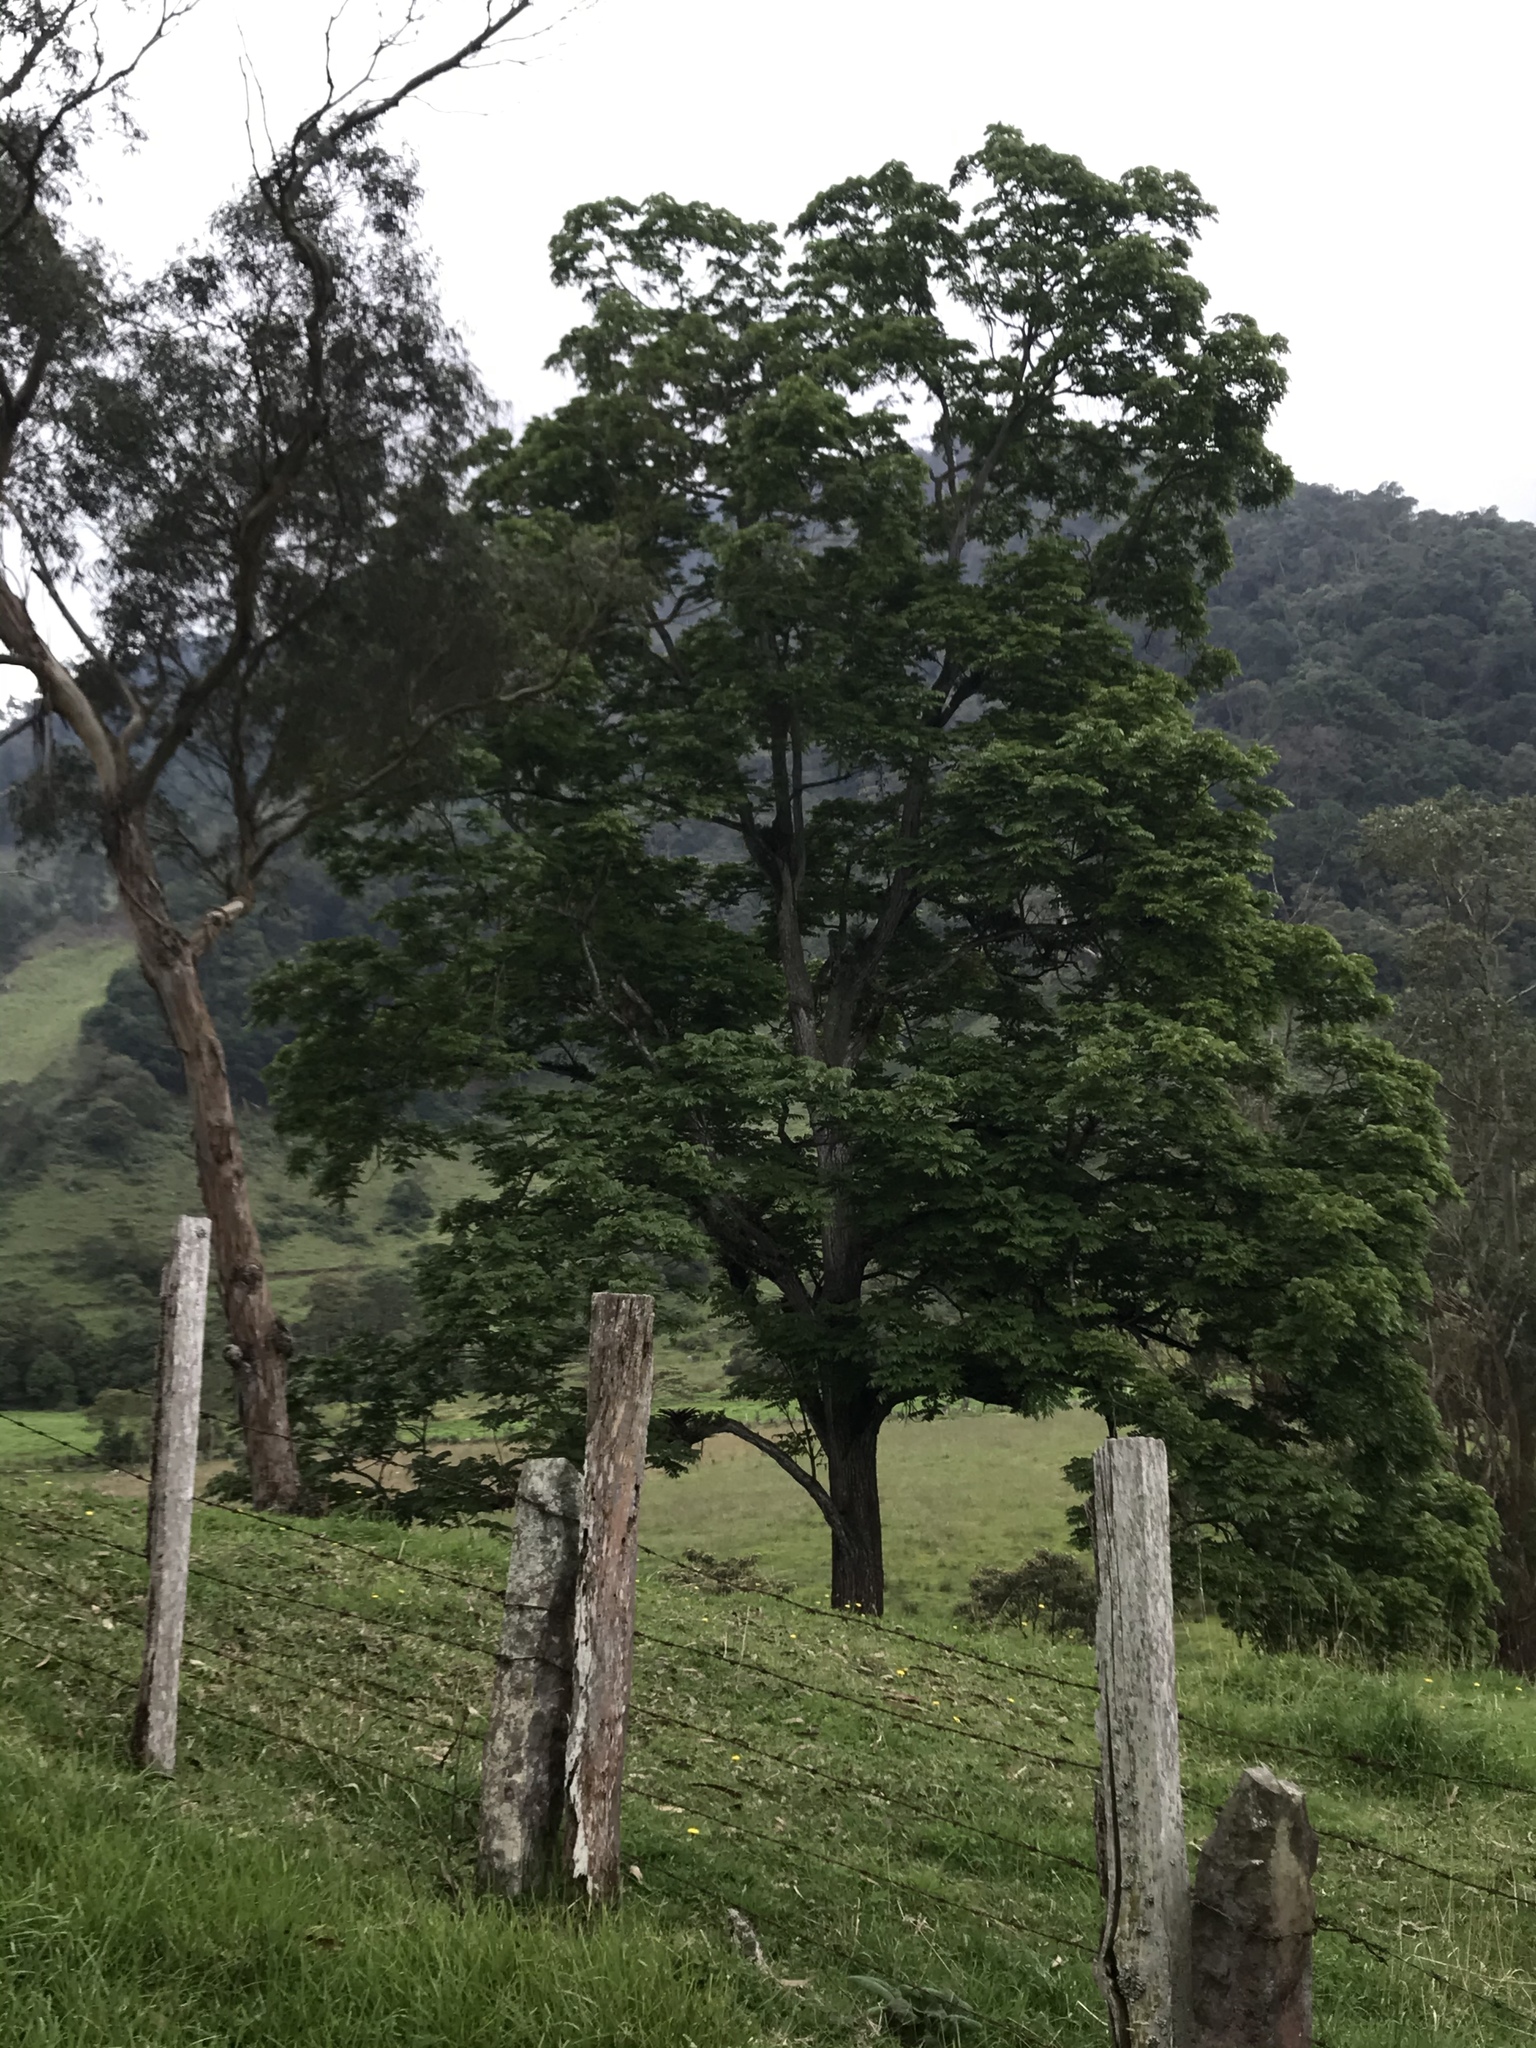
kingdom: Plantae
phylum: Tracheophyta
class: Magnoliopsida
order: Fagales
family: Juglandaceae
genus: Juglans
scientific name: Juglans neotropica
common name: Andean walnut
